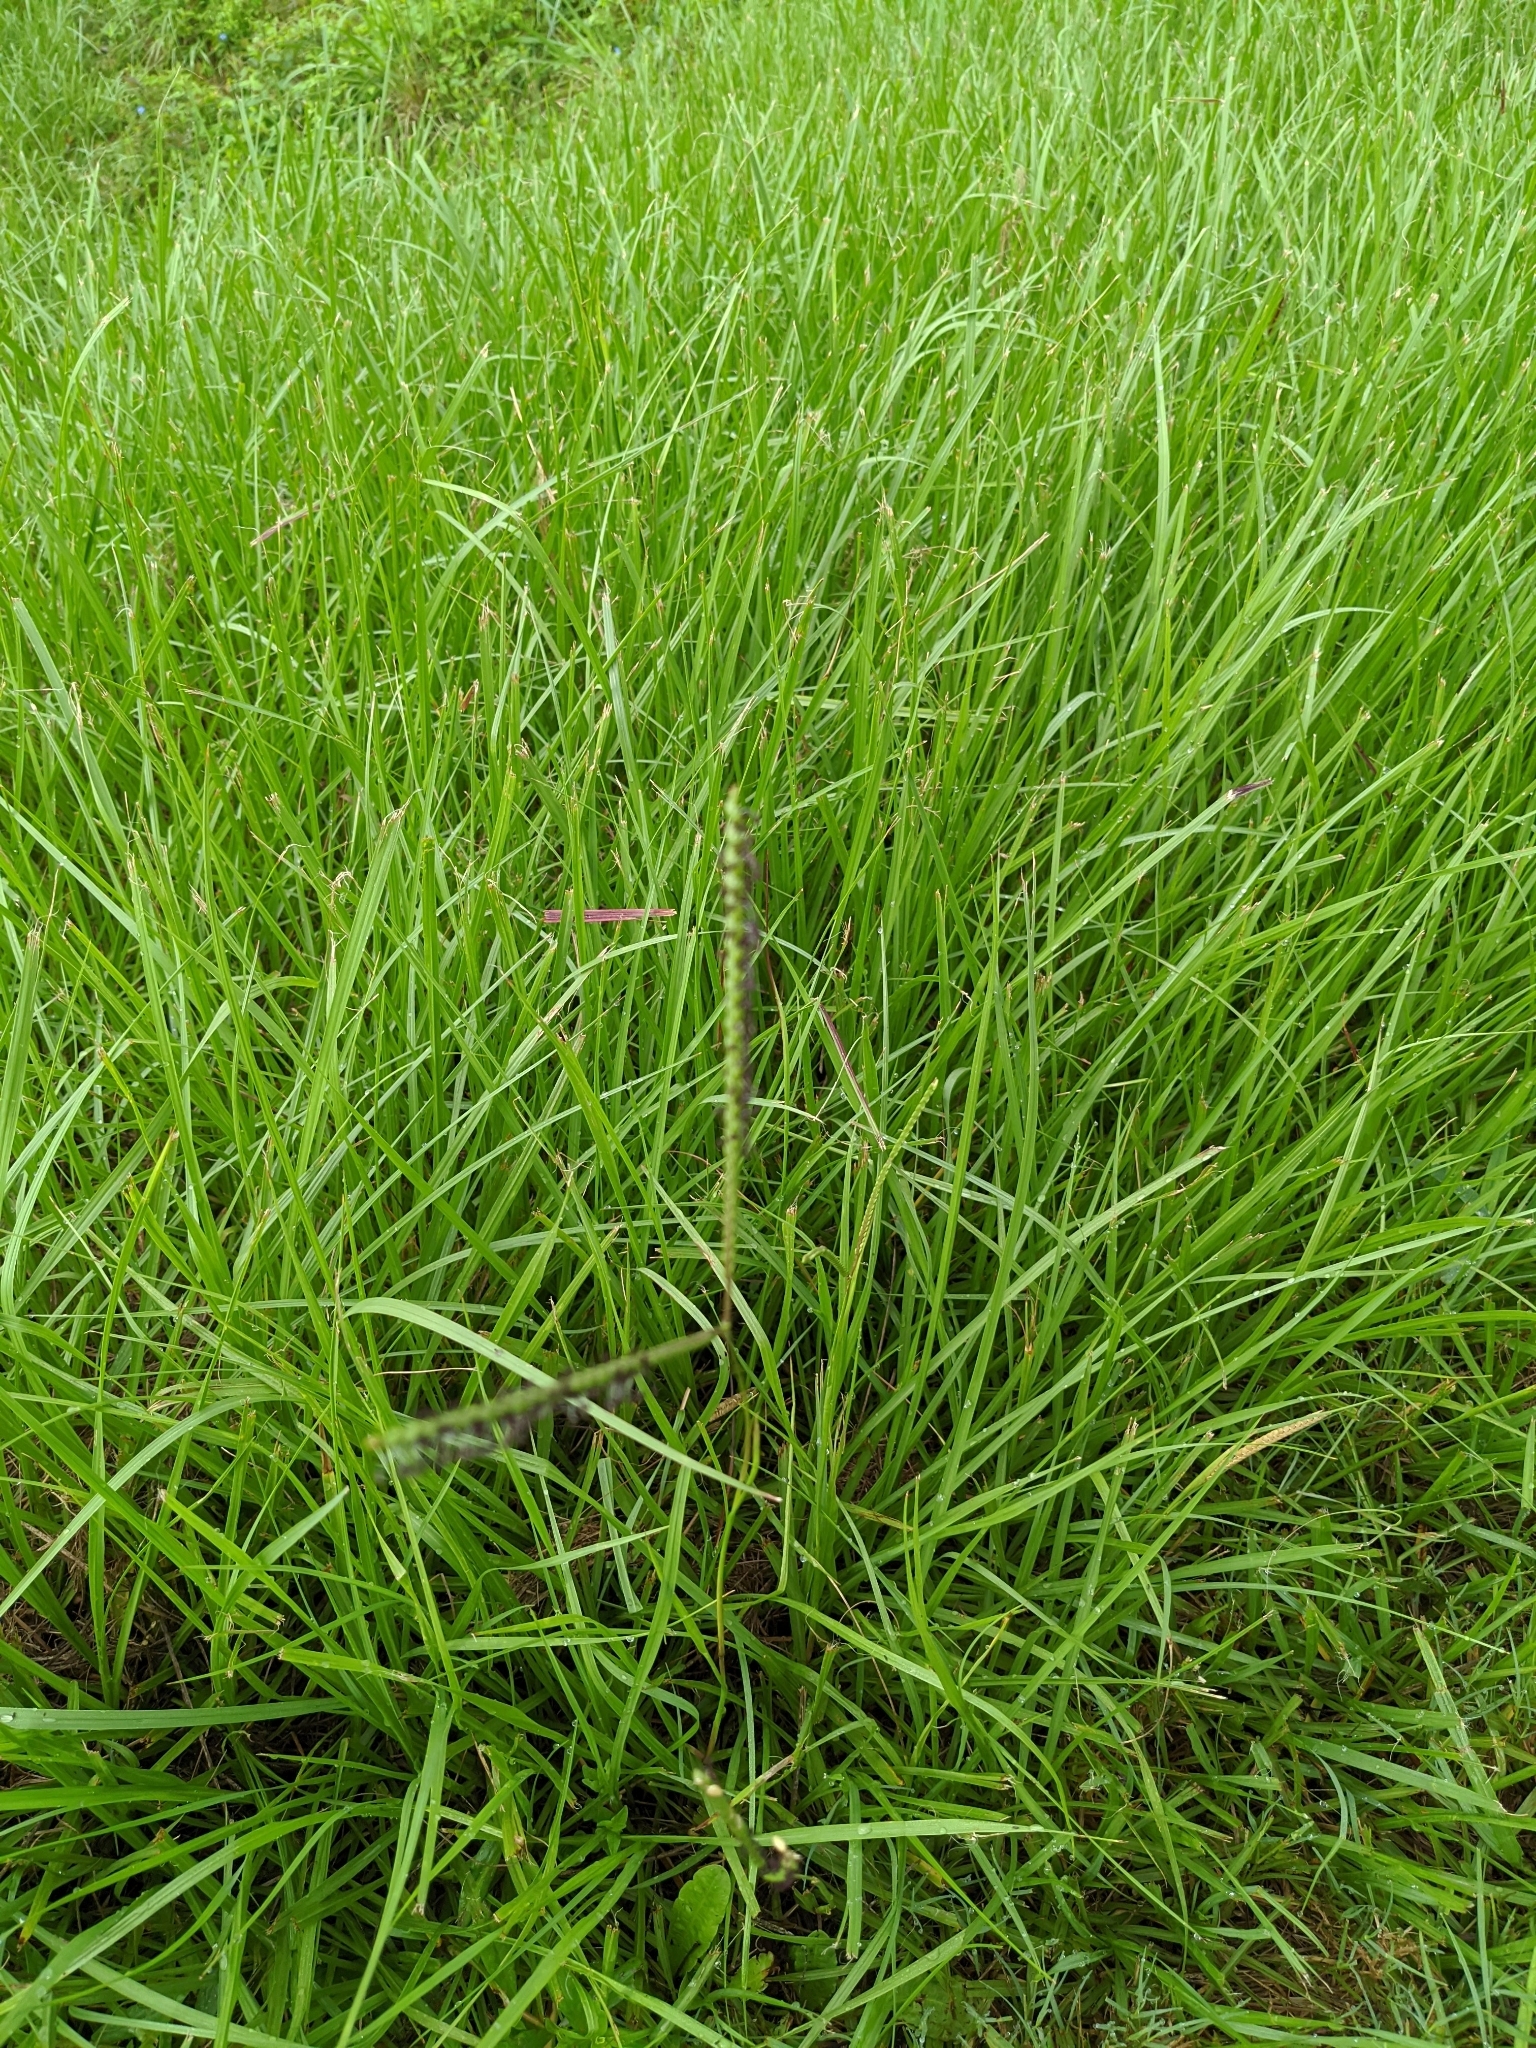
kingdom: Plantae
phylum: Tracheophyta
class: Liliopsida
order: Poales
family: Poaceae
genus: Paspalum
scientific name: Paspalum notatum
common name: Bahiagrass
